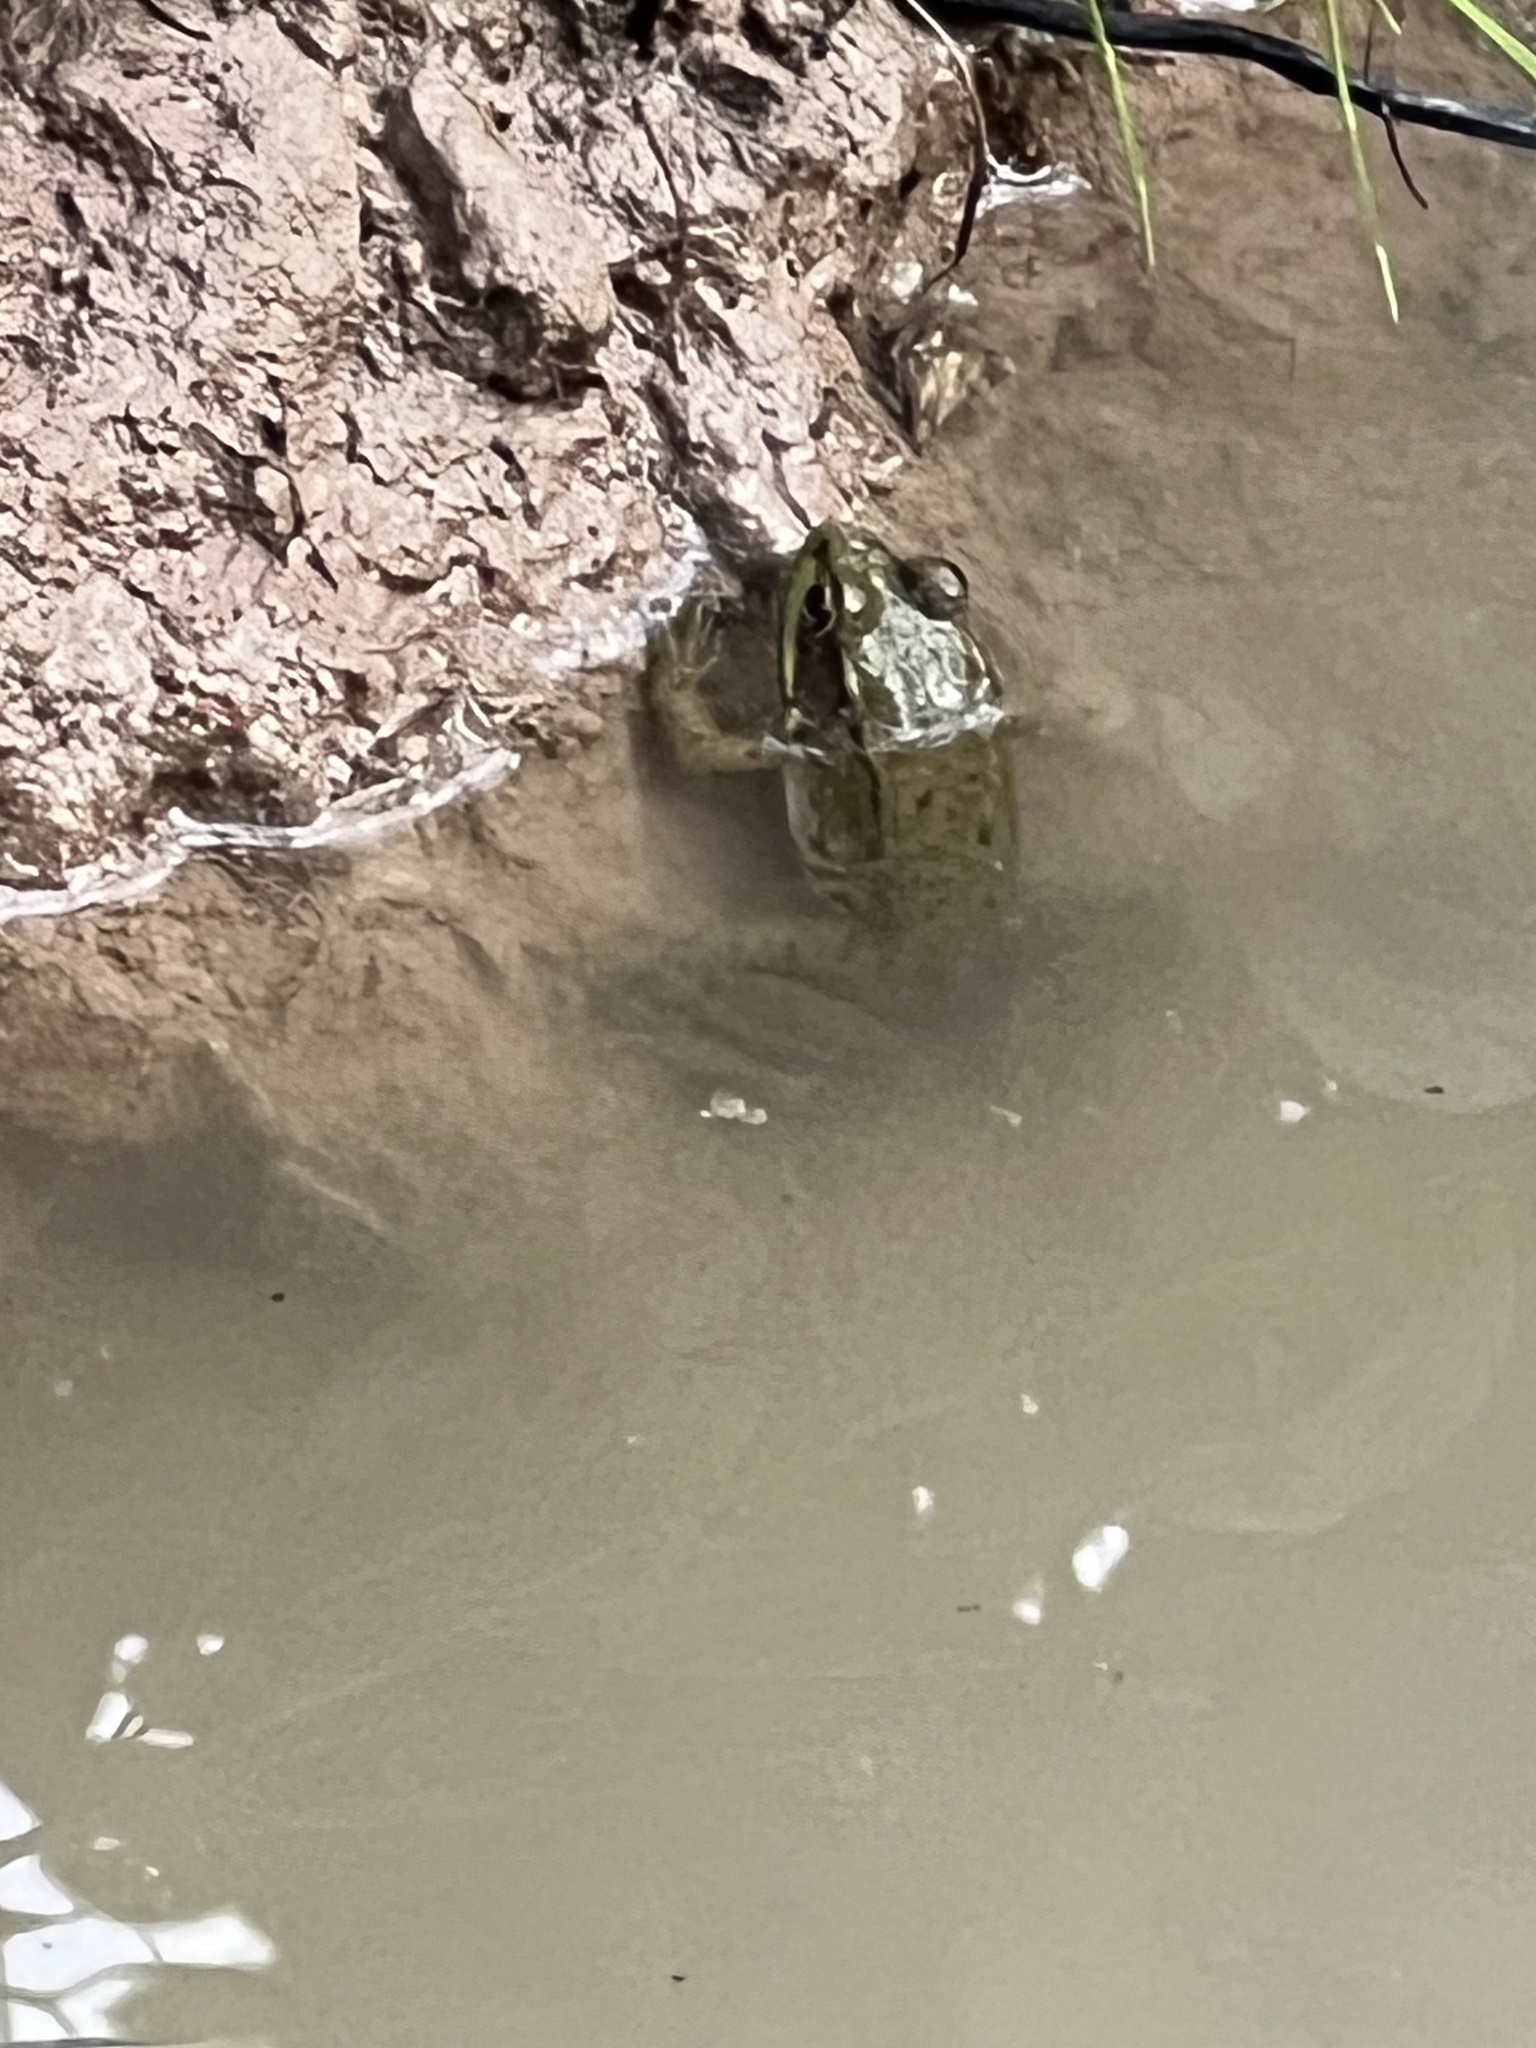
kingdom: Animalia
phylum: Chordata
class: Amphibia
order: Anura
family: Ranidae
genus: Lithobates
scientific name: Lithobates clamitans
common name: Green frog
